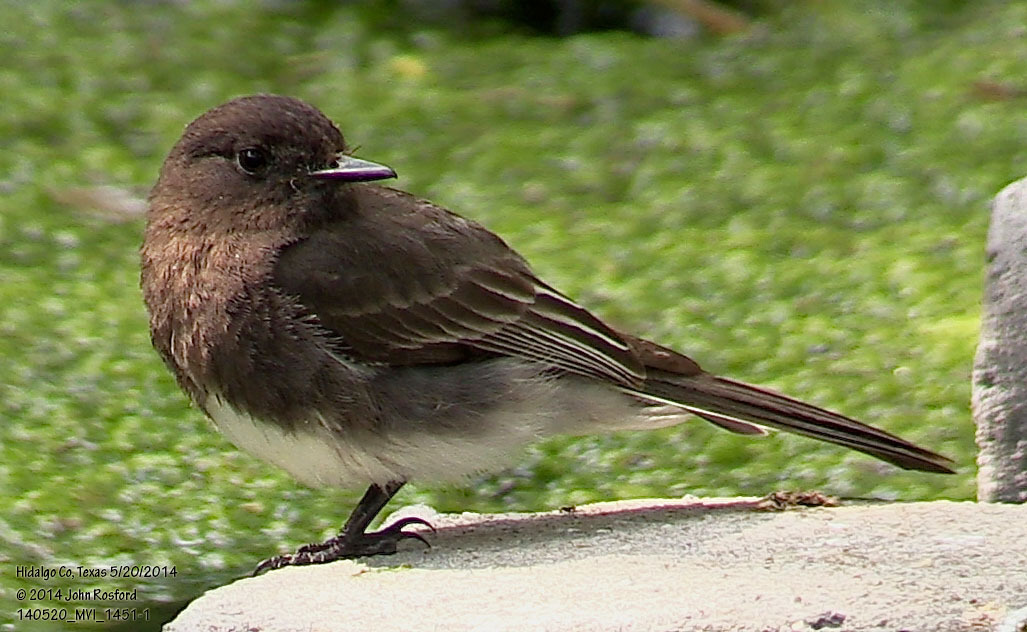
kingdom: Animalia
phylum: Chordata
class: Aves
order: Passeriformes
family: Tyrannidae
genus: Sayornis
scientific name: Sayornis nigricans
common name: Black phoebe
